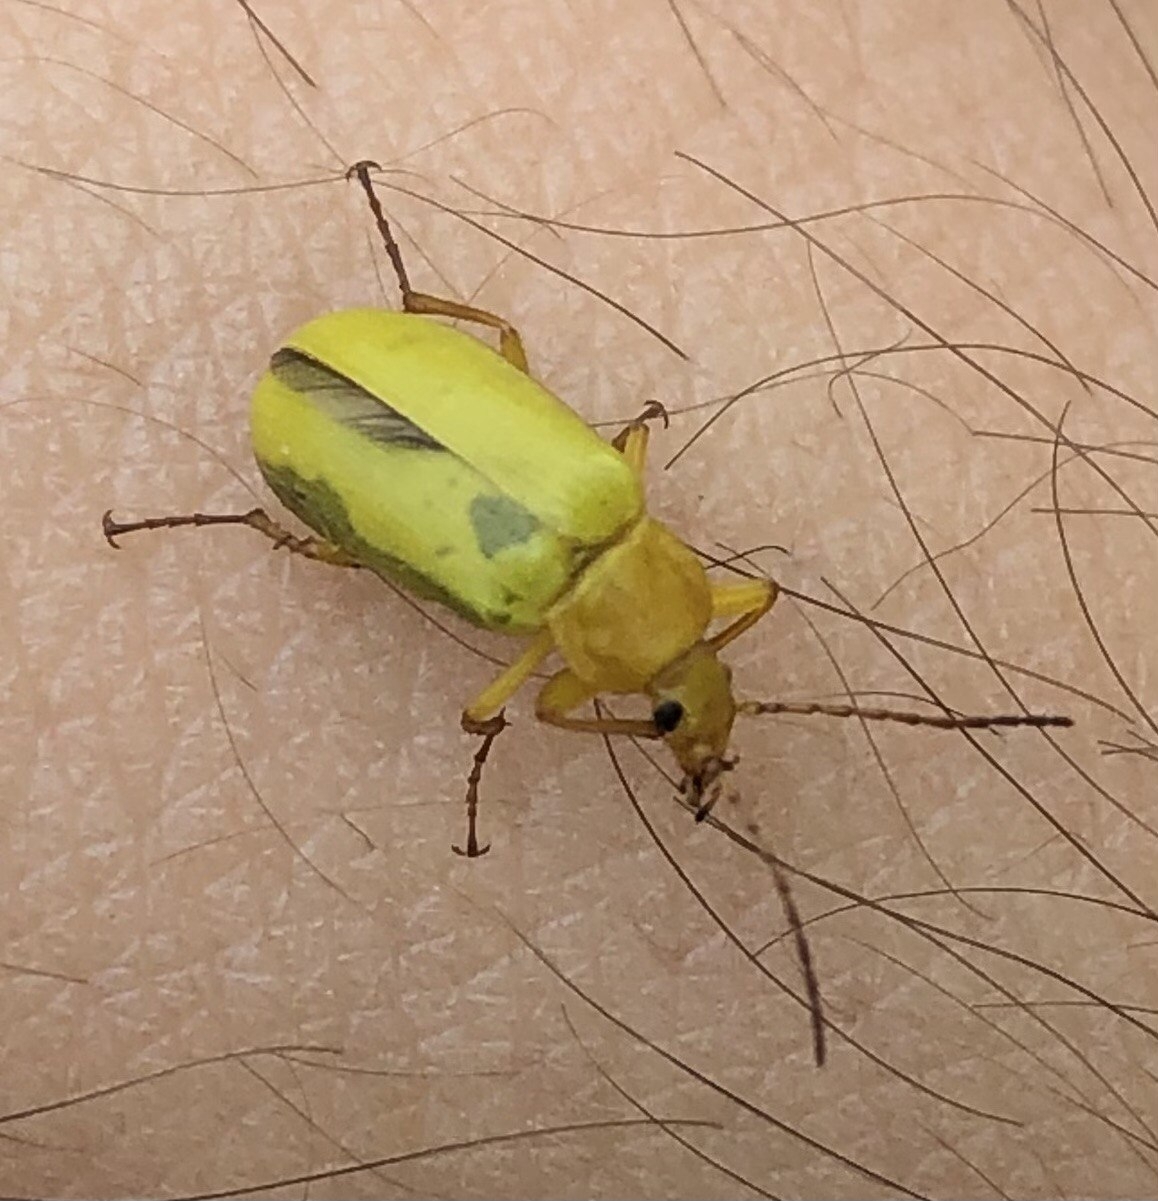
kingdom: Animalia
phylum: Arthropoda
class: Insecta
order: Coleoptera
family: Tenebrionidae
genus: Cteniopus
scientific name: Cteniopus sulphureus
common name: Sulphur beetle
